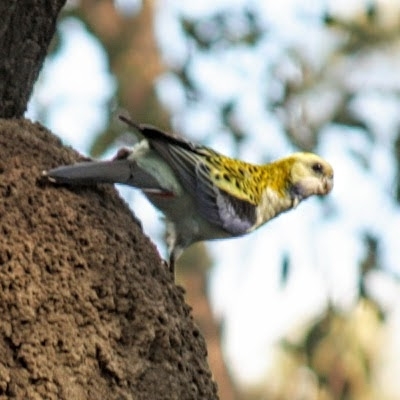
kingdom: Animalia
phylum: Chordata
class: Aves
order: Psittaciformes
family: Psittacidae
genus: Platycercus
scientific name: Platycercus adscitus
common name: Pale-headed rosella
